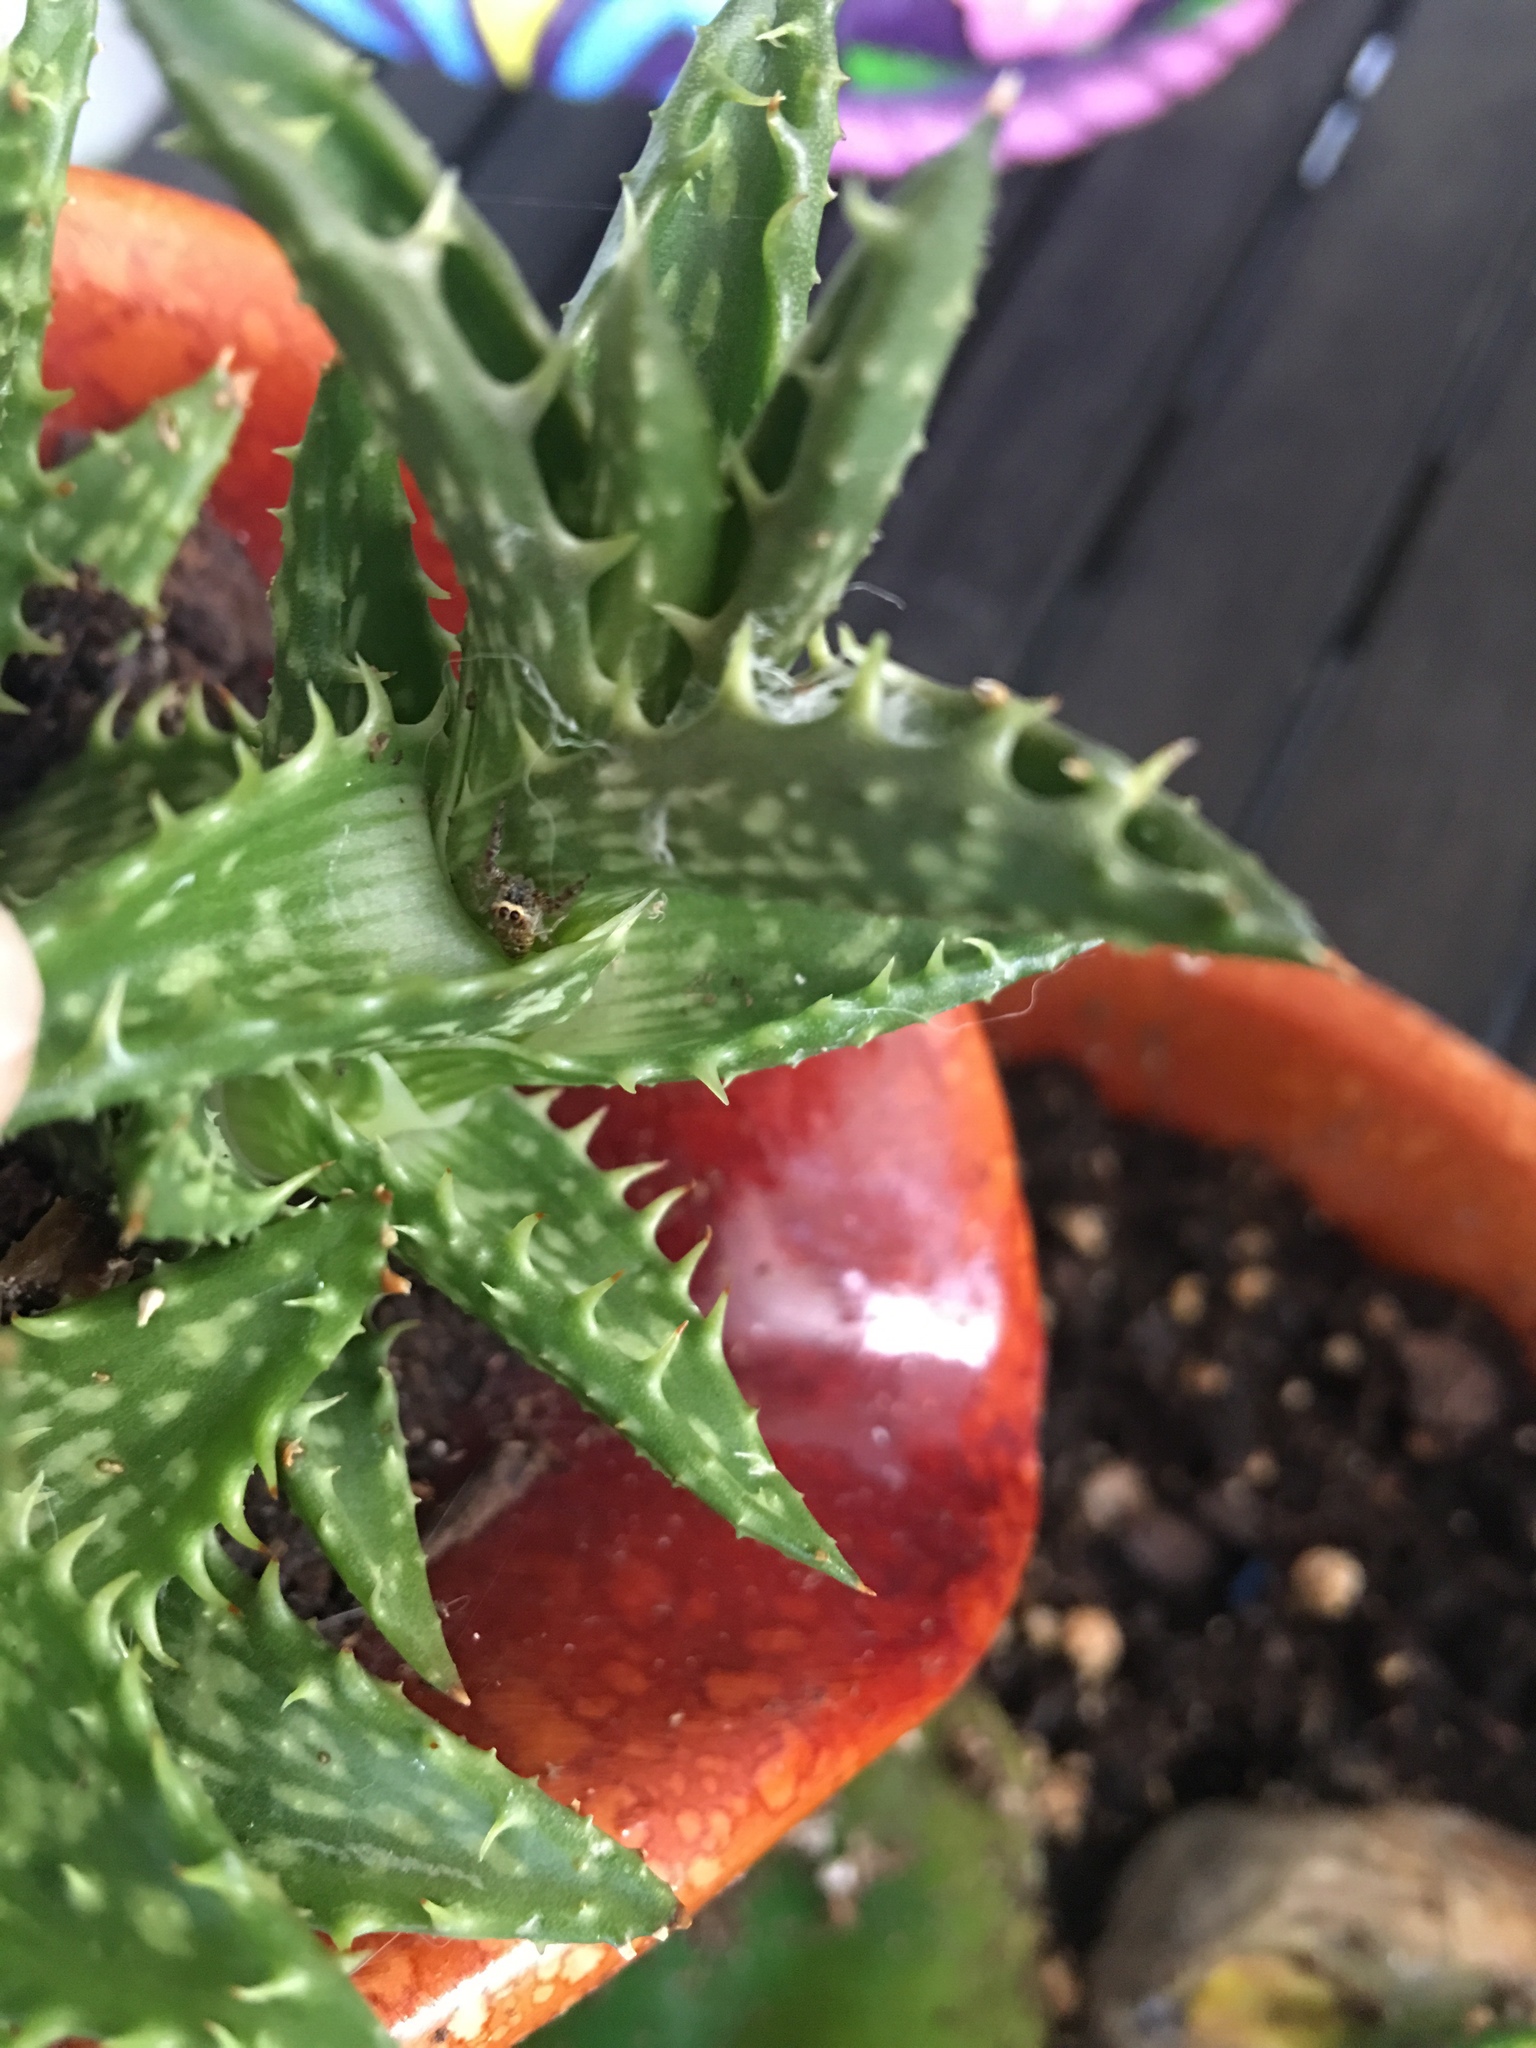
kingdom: Animalia
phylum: Arthropoda
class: Arachnida
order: Araneae
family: Salticidae
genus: Hentzia
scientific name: Hentzia chekika
